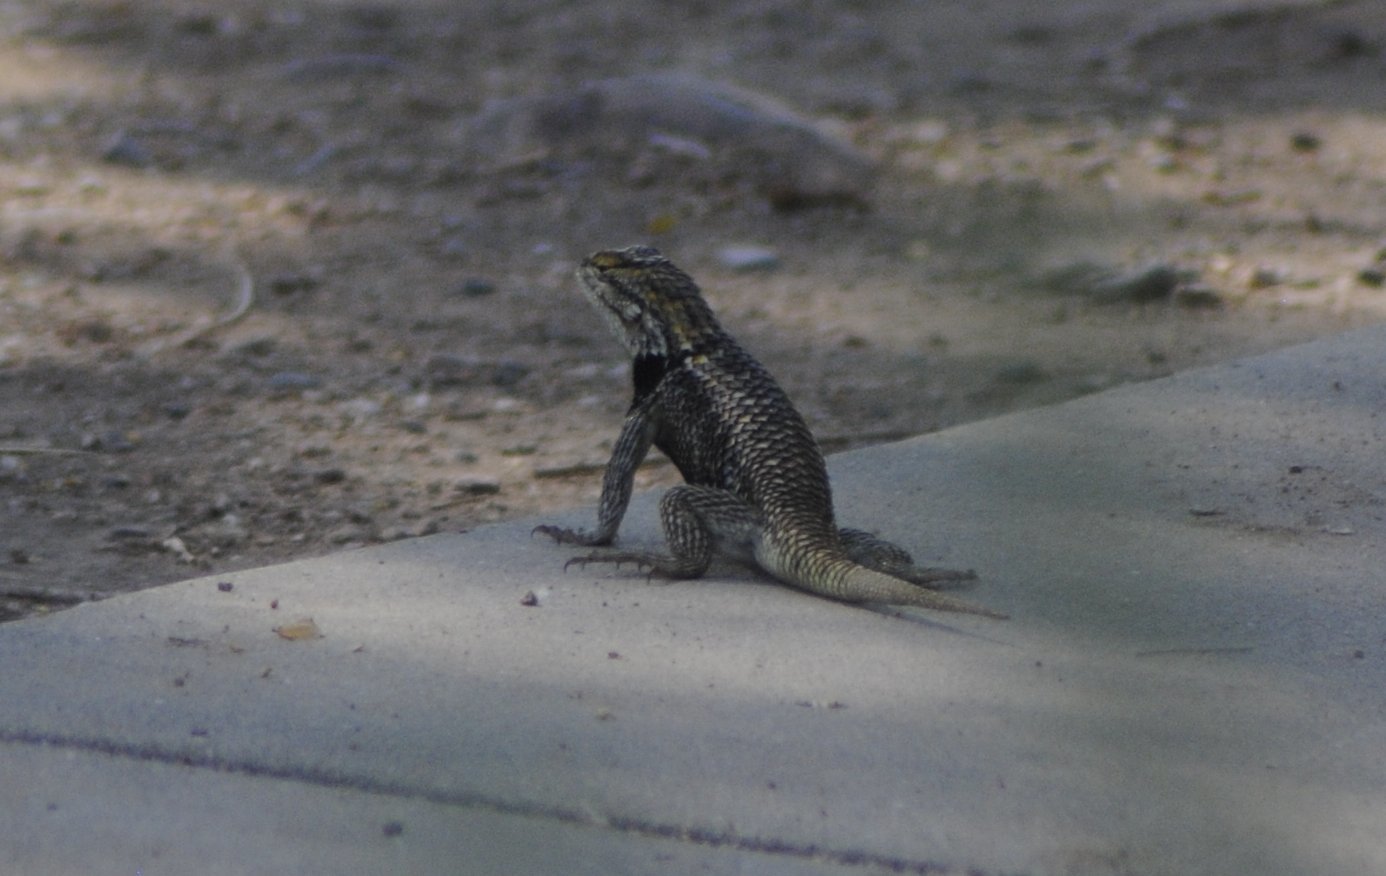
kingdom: Animalia
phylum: Chordata
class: Squamata
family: Phrynosomatidae
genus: Sceloporus
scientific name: Sceloporus magister
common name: Desert spiny lizard
